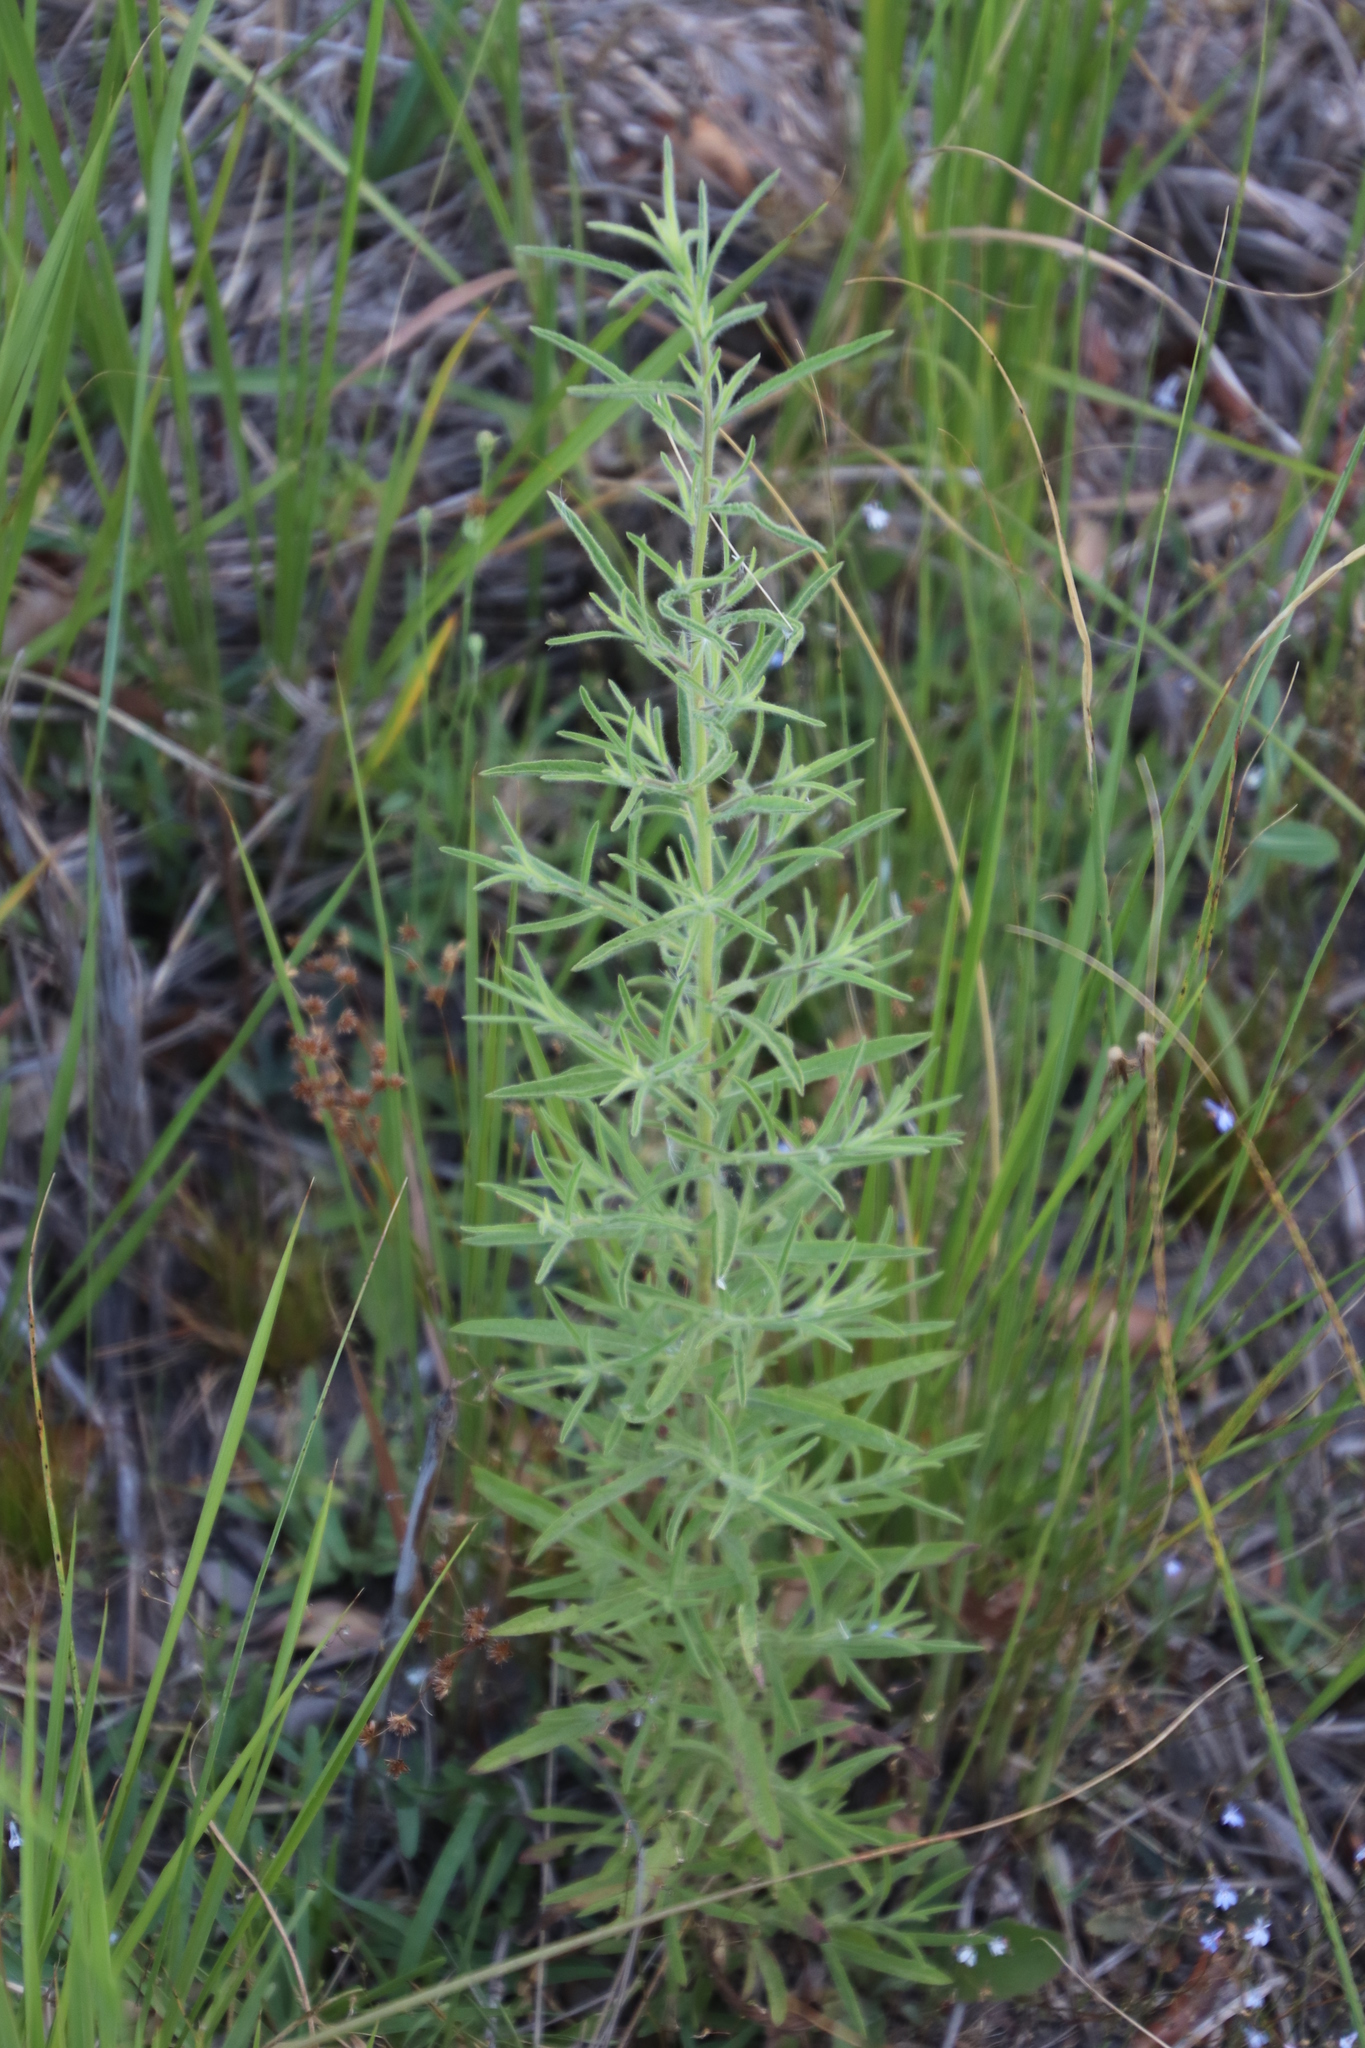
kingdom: Plantae
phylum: Tracheophyta
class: Magnoliopsida
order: Asterales
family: Asteraceae
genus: Dittrichia
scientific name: Dittrichia graveolens
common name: Stinking fleabane
